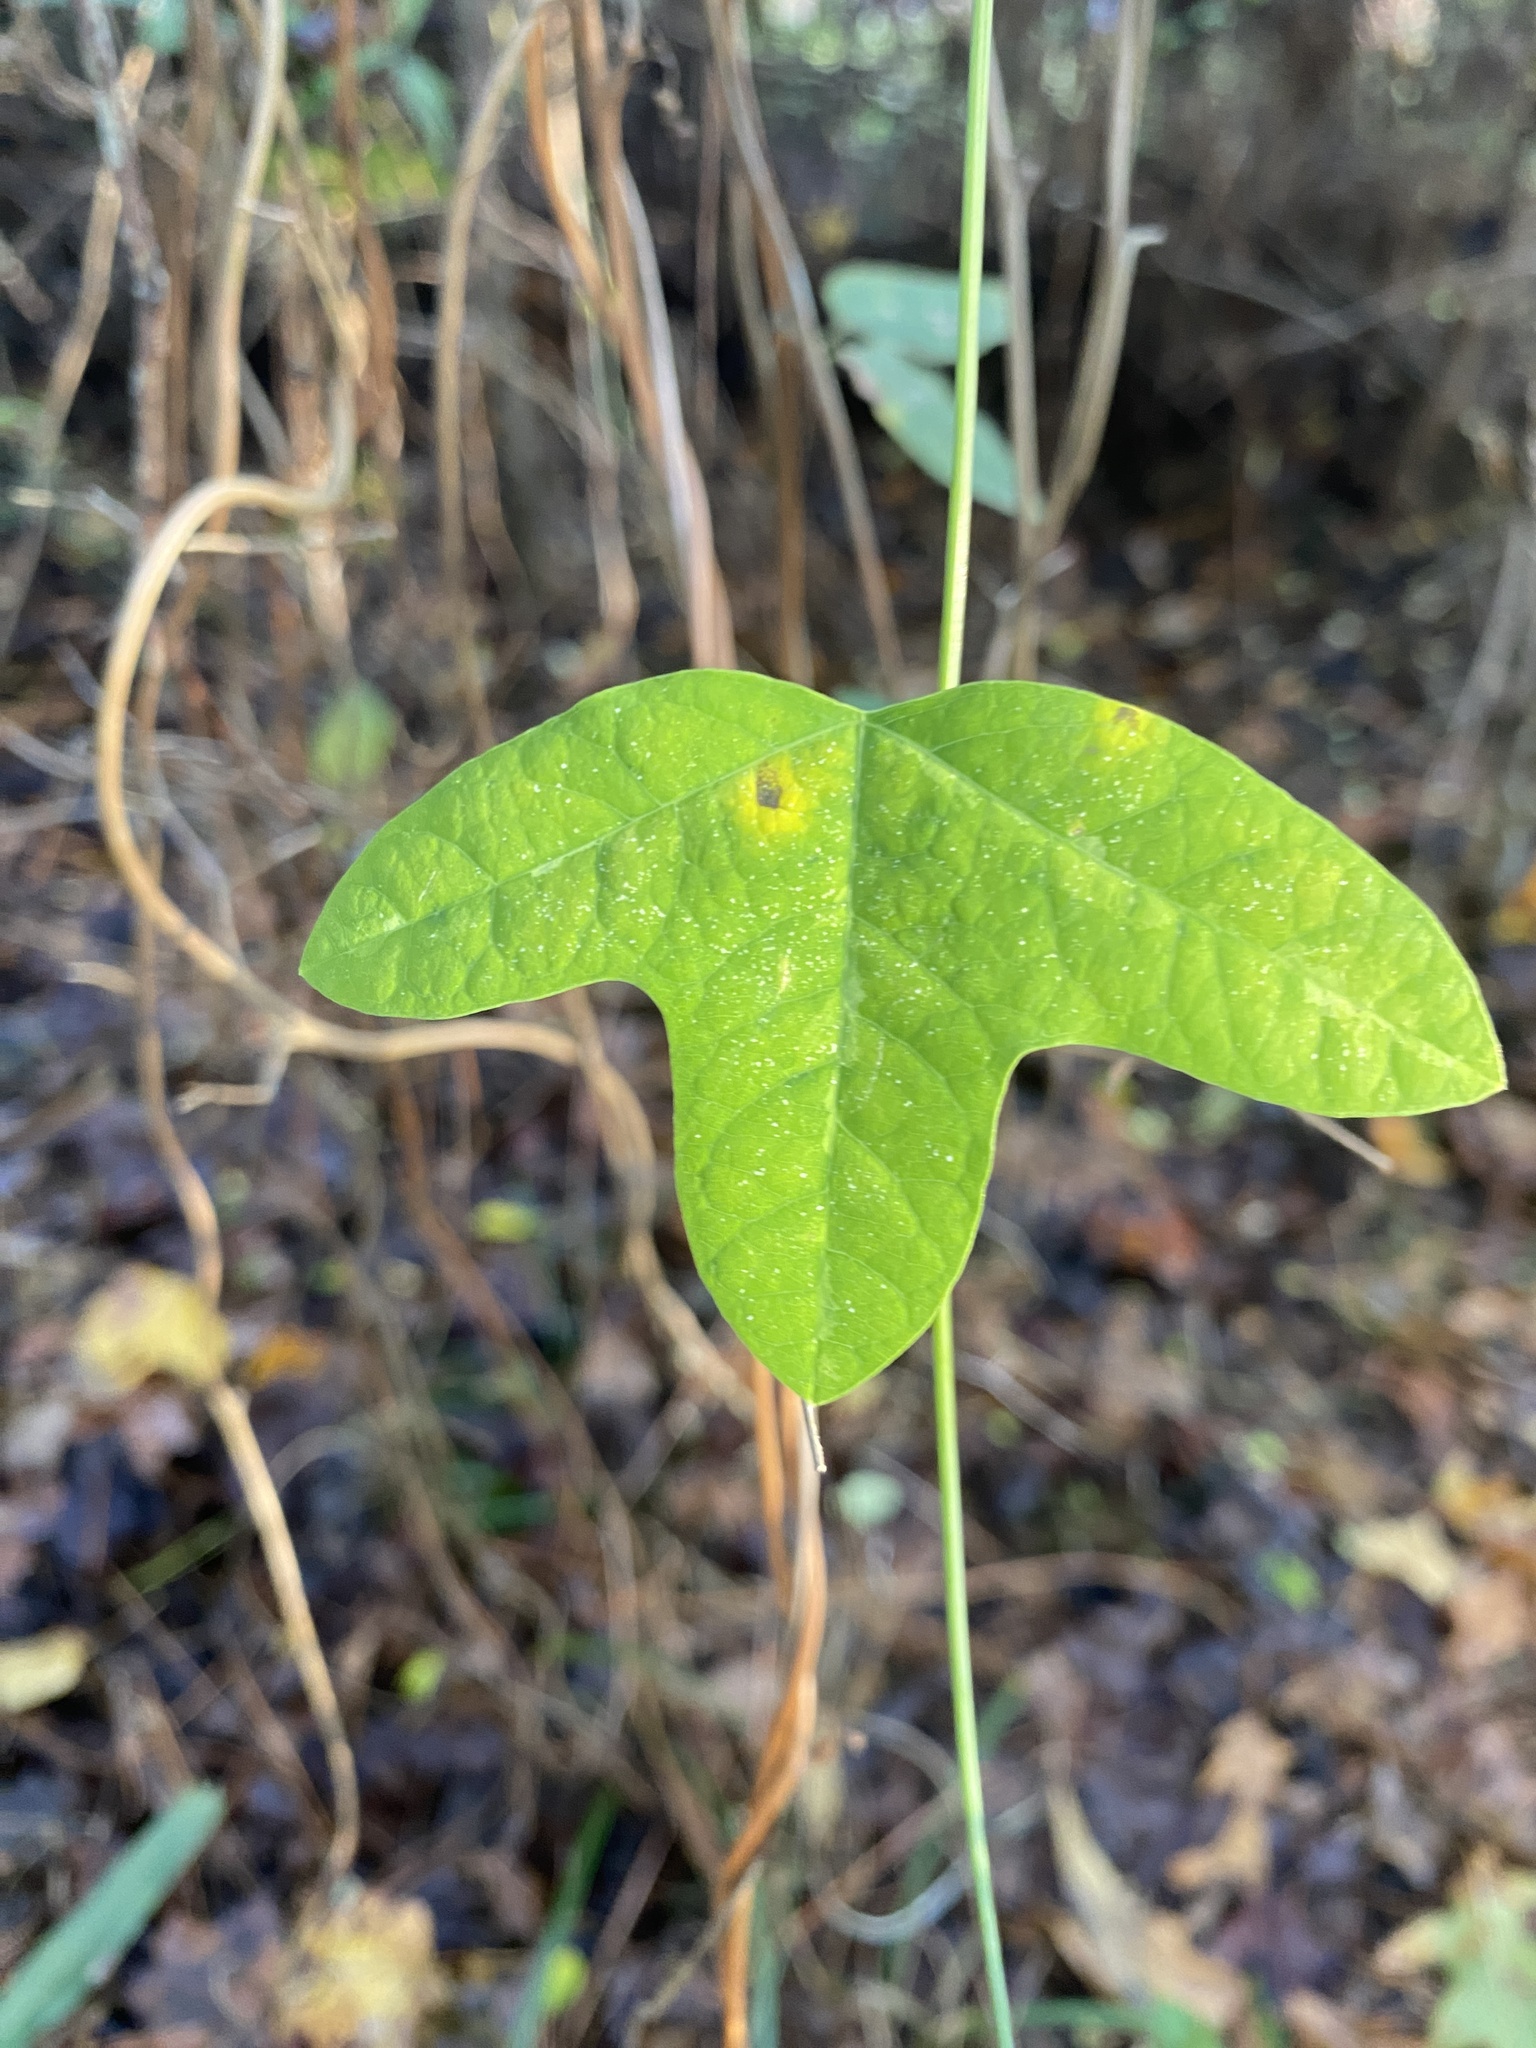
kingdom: Plantae
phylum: Tracheophyta
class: Magnoliopsida
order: Malpighiales
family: Passifloraceae
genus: Passiflora
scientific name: Passiflora lutea
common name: Yellow passionflower
